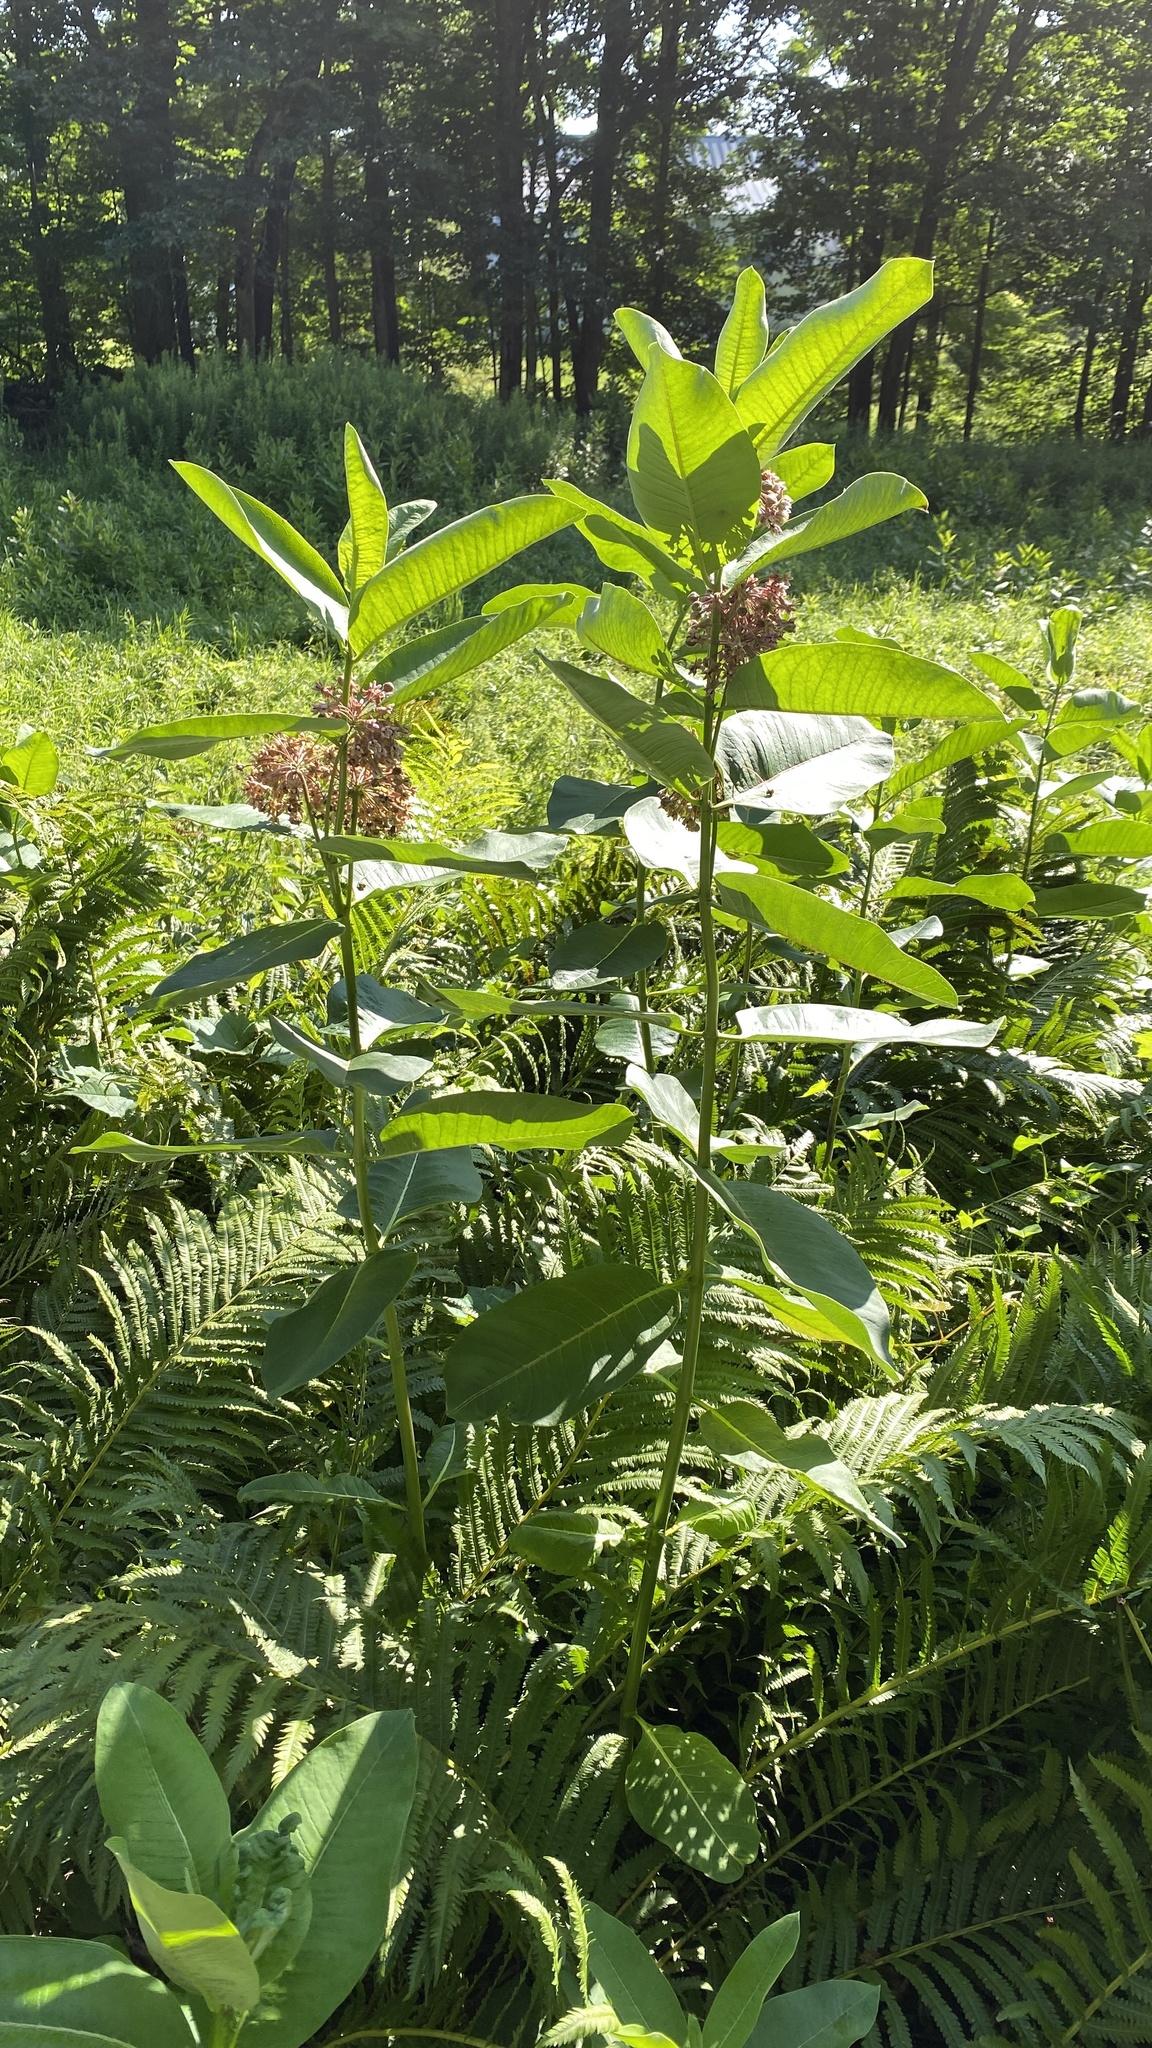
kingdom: Plantae
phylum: Tracheophyta
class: Magnoliopsida
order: Gentianales
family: Apocynaceae
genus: Asclepias
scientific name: Asclepias syriaca
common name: Common milkweed
